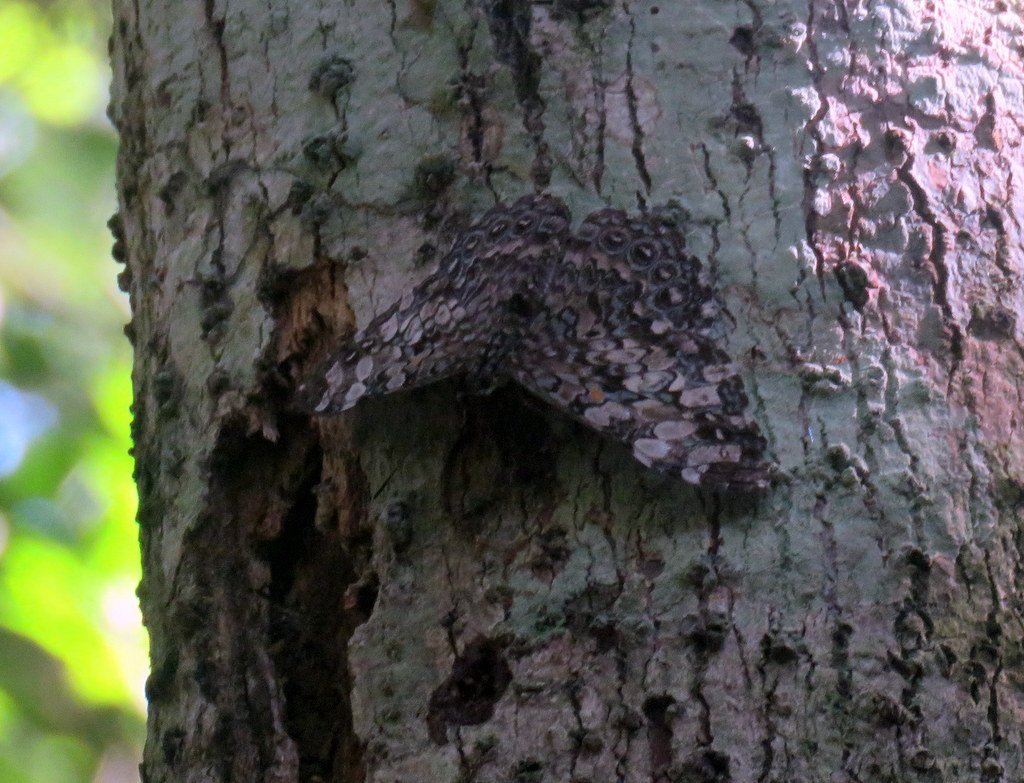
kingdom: Animalia
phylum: Arthropoda
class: Insecta
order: Lepidoptera
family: Nymphalidae
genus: Hamadryas
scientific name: Hamadryas epinome
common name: Epinome cracker
